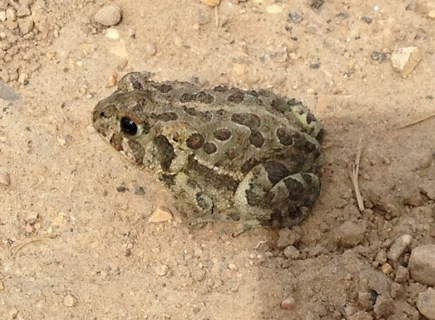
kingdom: Animalia
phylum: Chordata
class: Amphibia
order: Anura
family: Bufonidae
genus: Anaxyrus
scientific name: Anaxyrus hemiophrys
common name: Canadian toad
